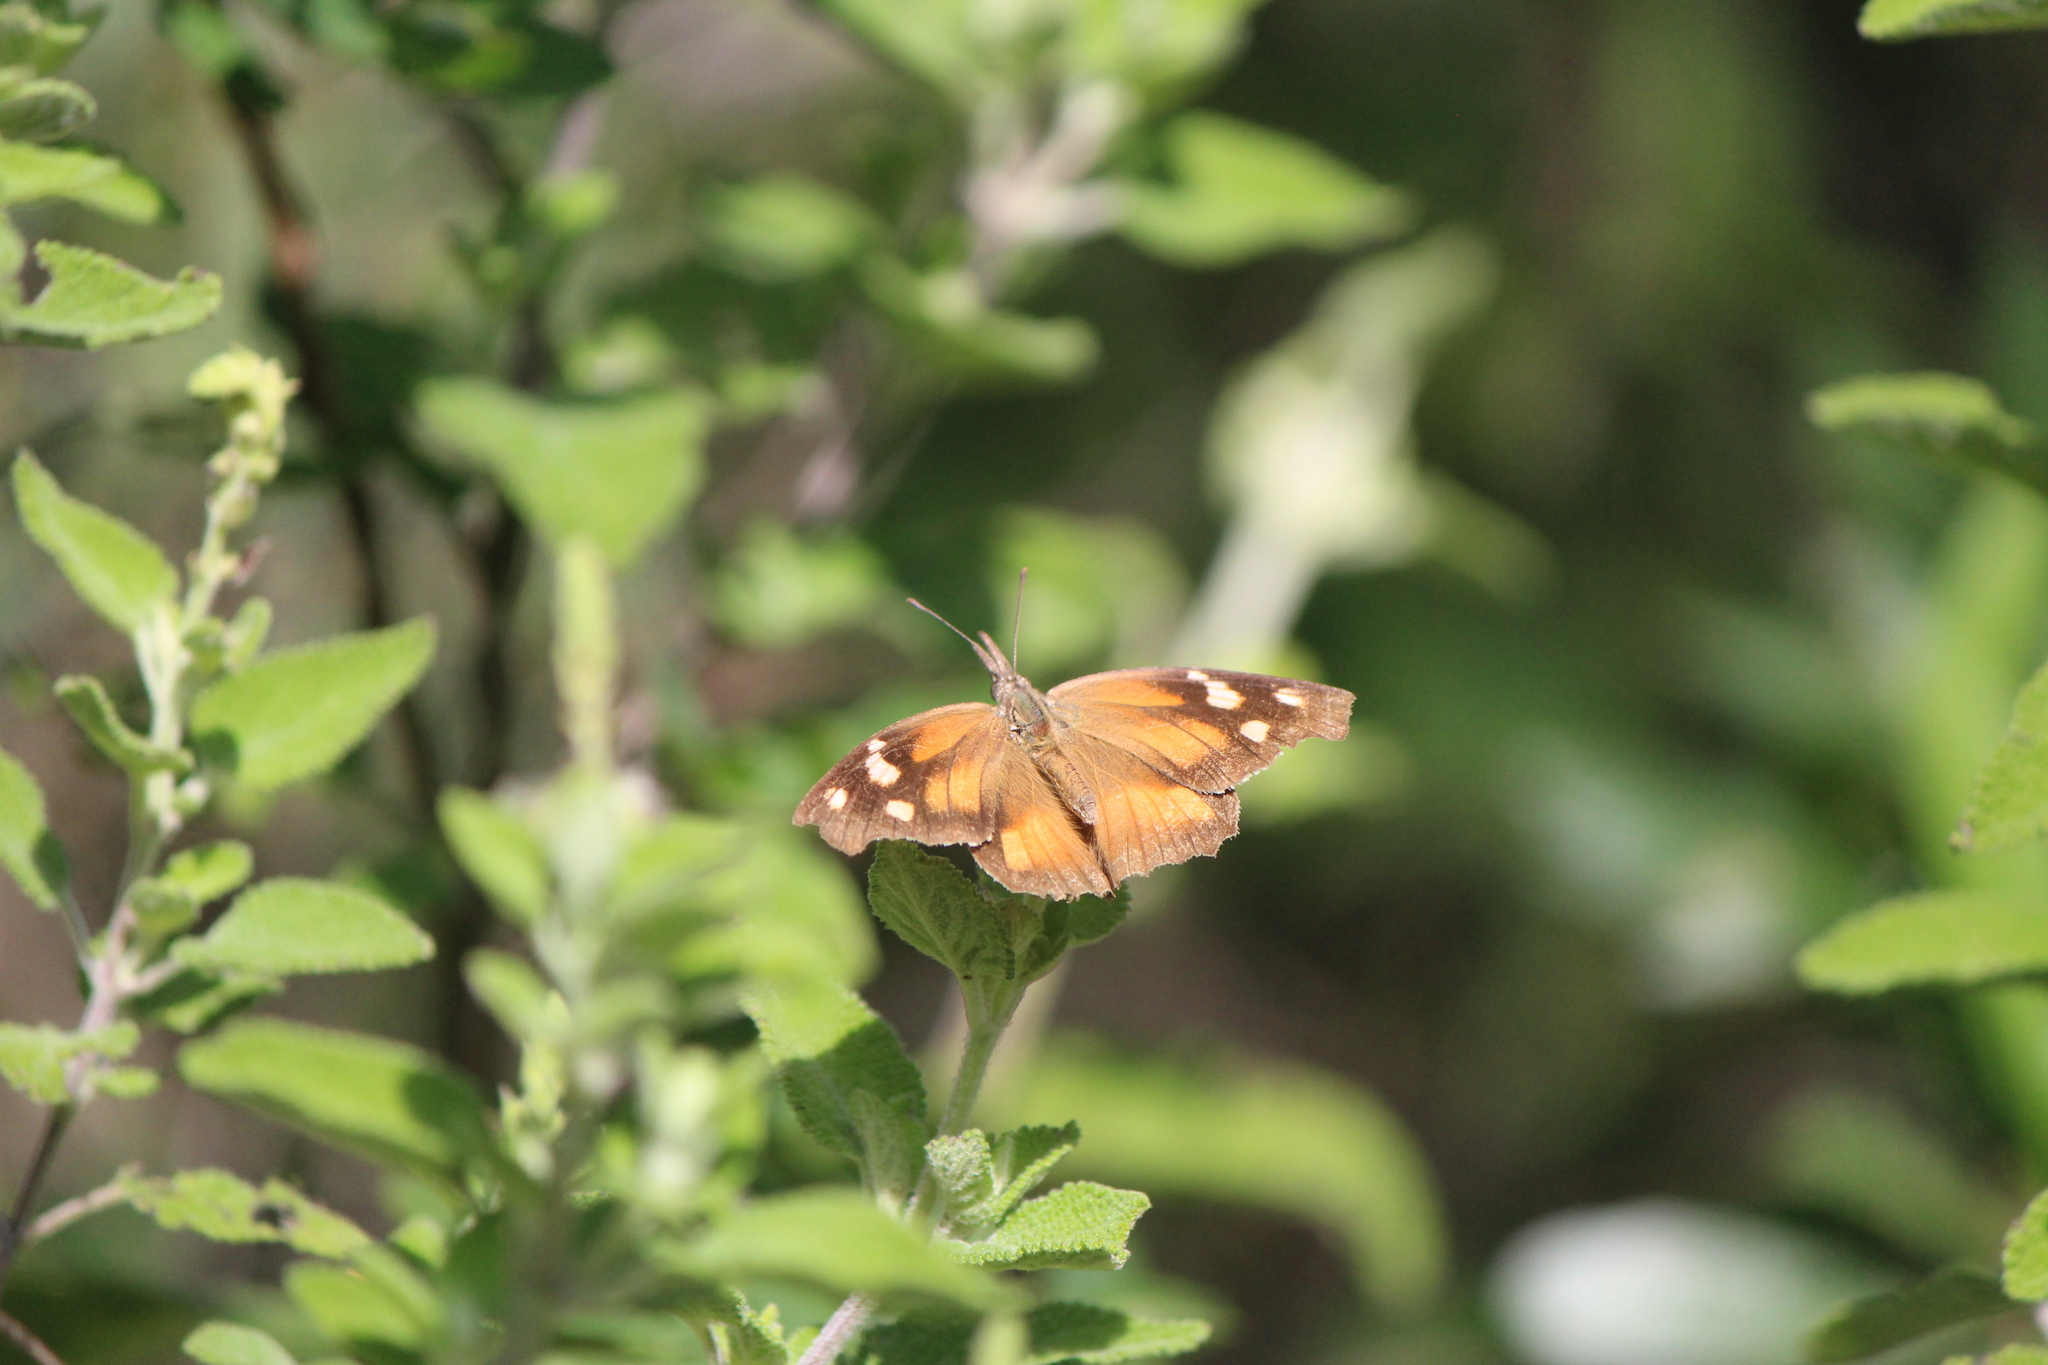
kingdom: Animalia
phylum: Arthropoda
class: Insecta
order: Lepidoptera
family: Nymphalidae
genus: Libytheana
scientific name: Libytheana carinenta
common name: American snout
